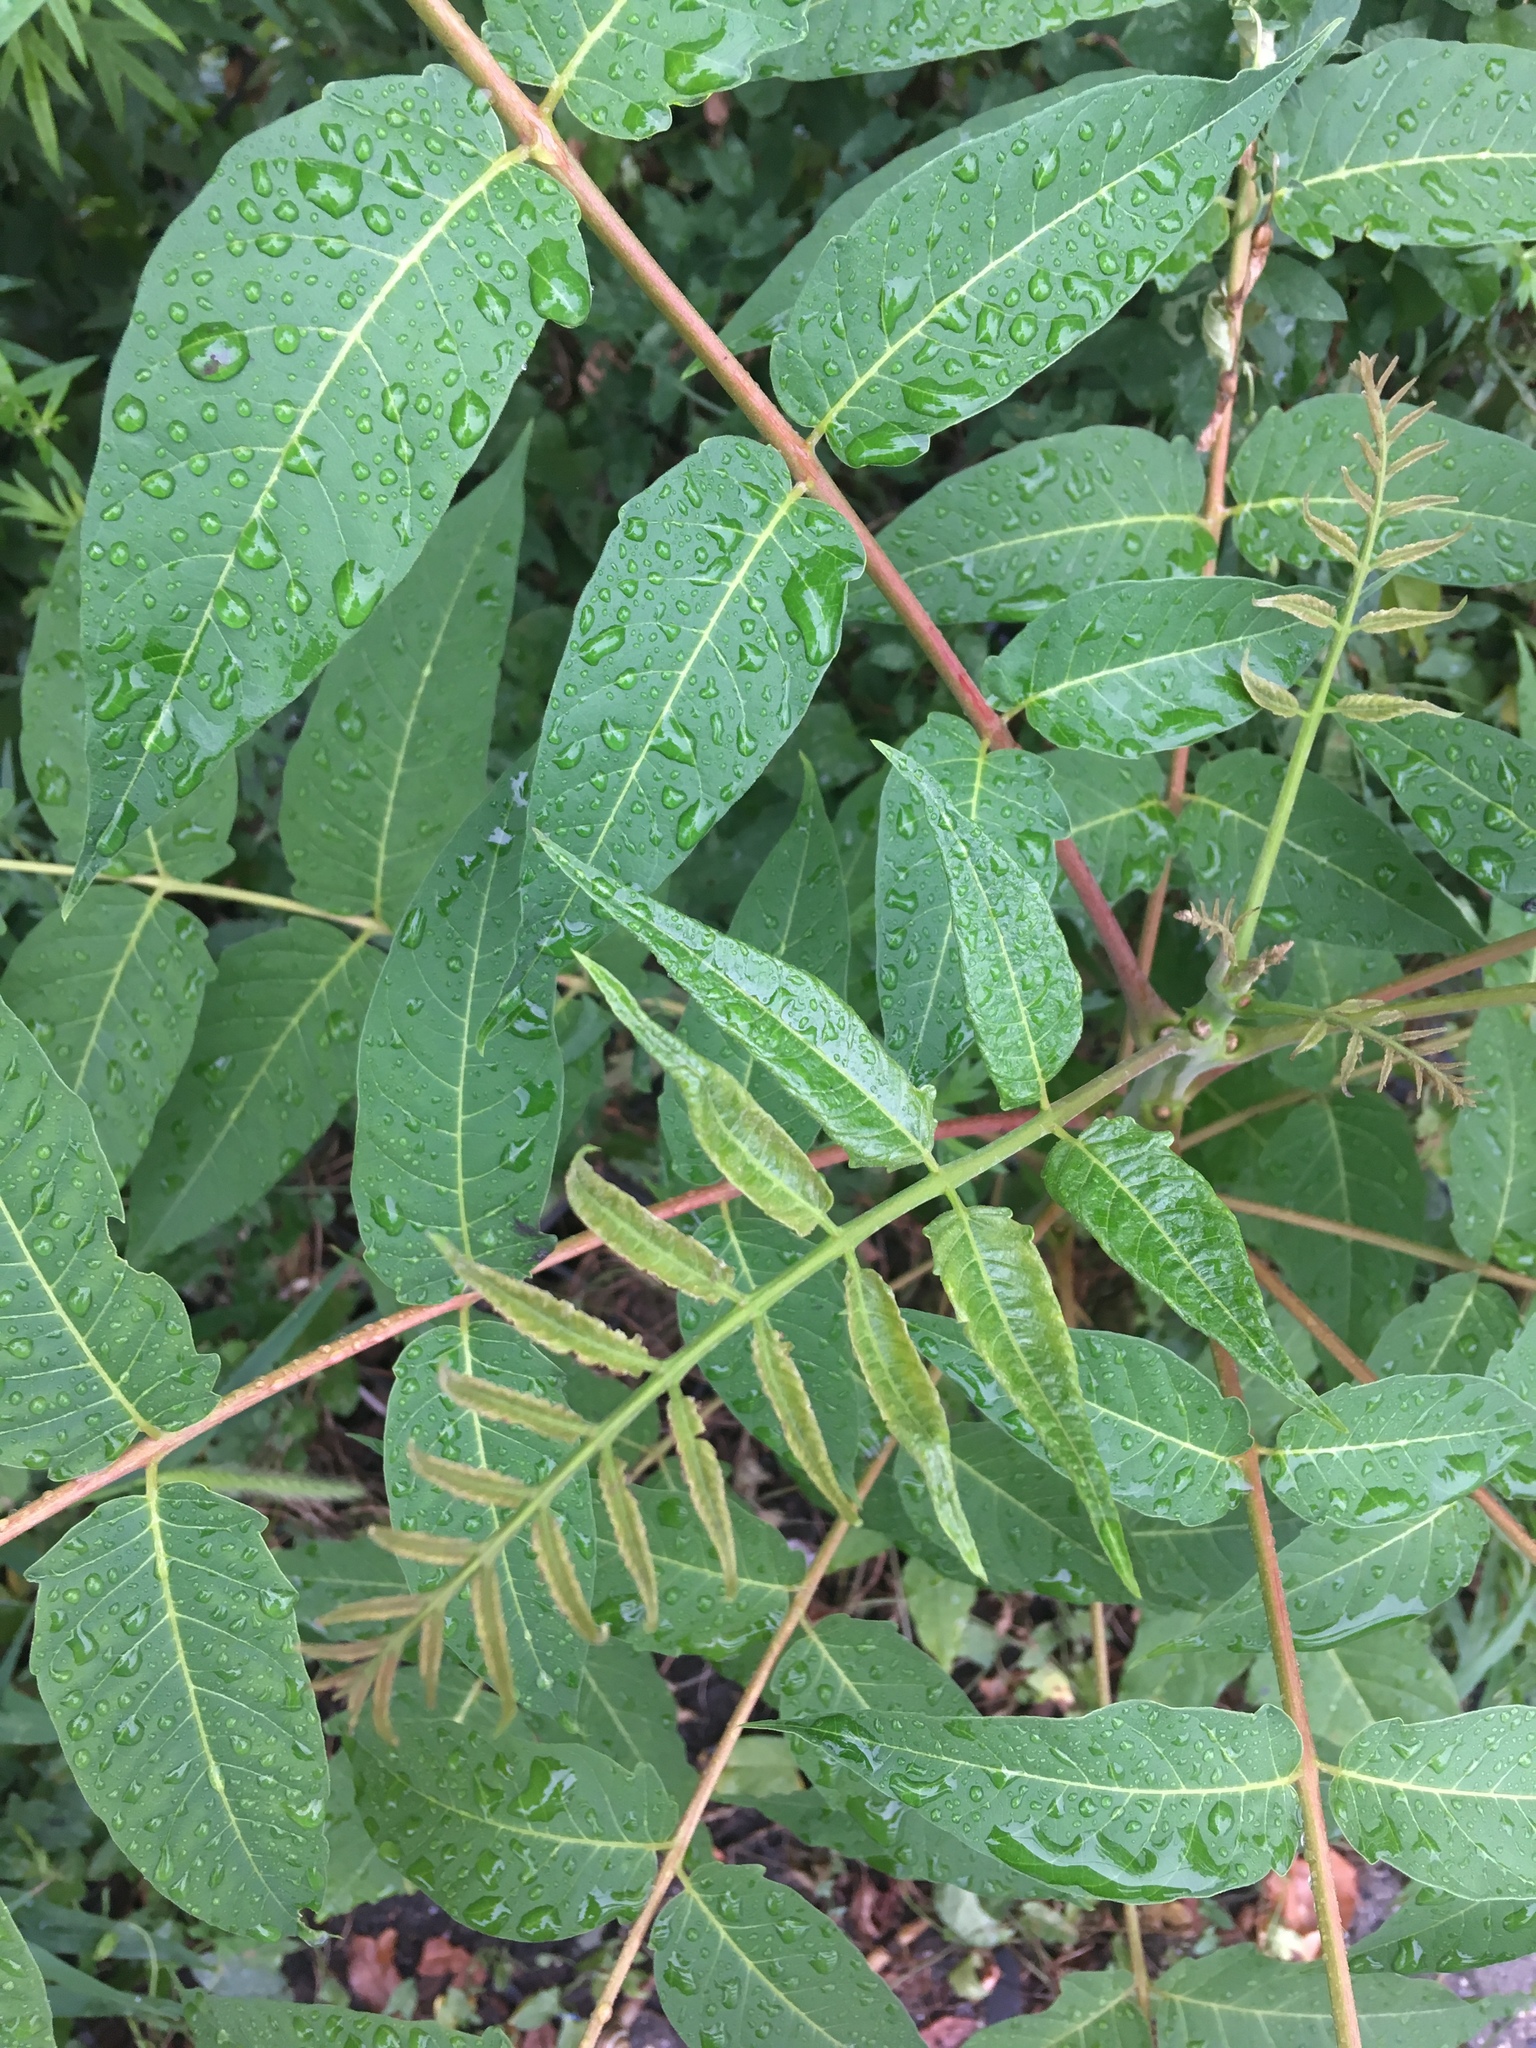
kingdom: Plantae
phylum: Tracheophyta
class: Magnoliopsida
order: Sapindales
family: Simaroubaceae
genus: Ailanthus
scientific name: Ailanthus altissima
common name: Tree-of-heaven
